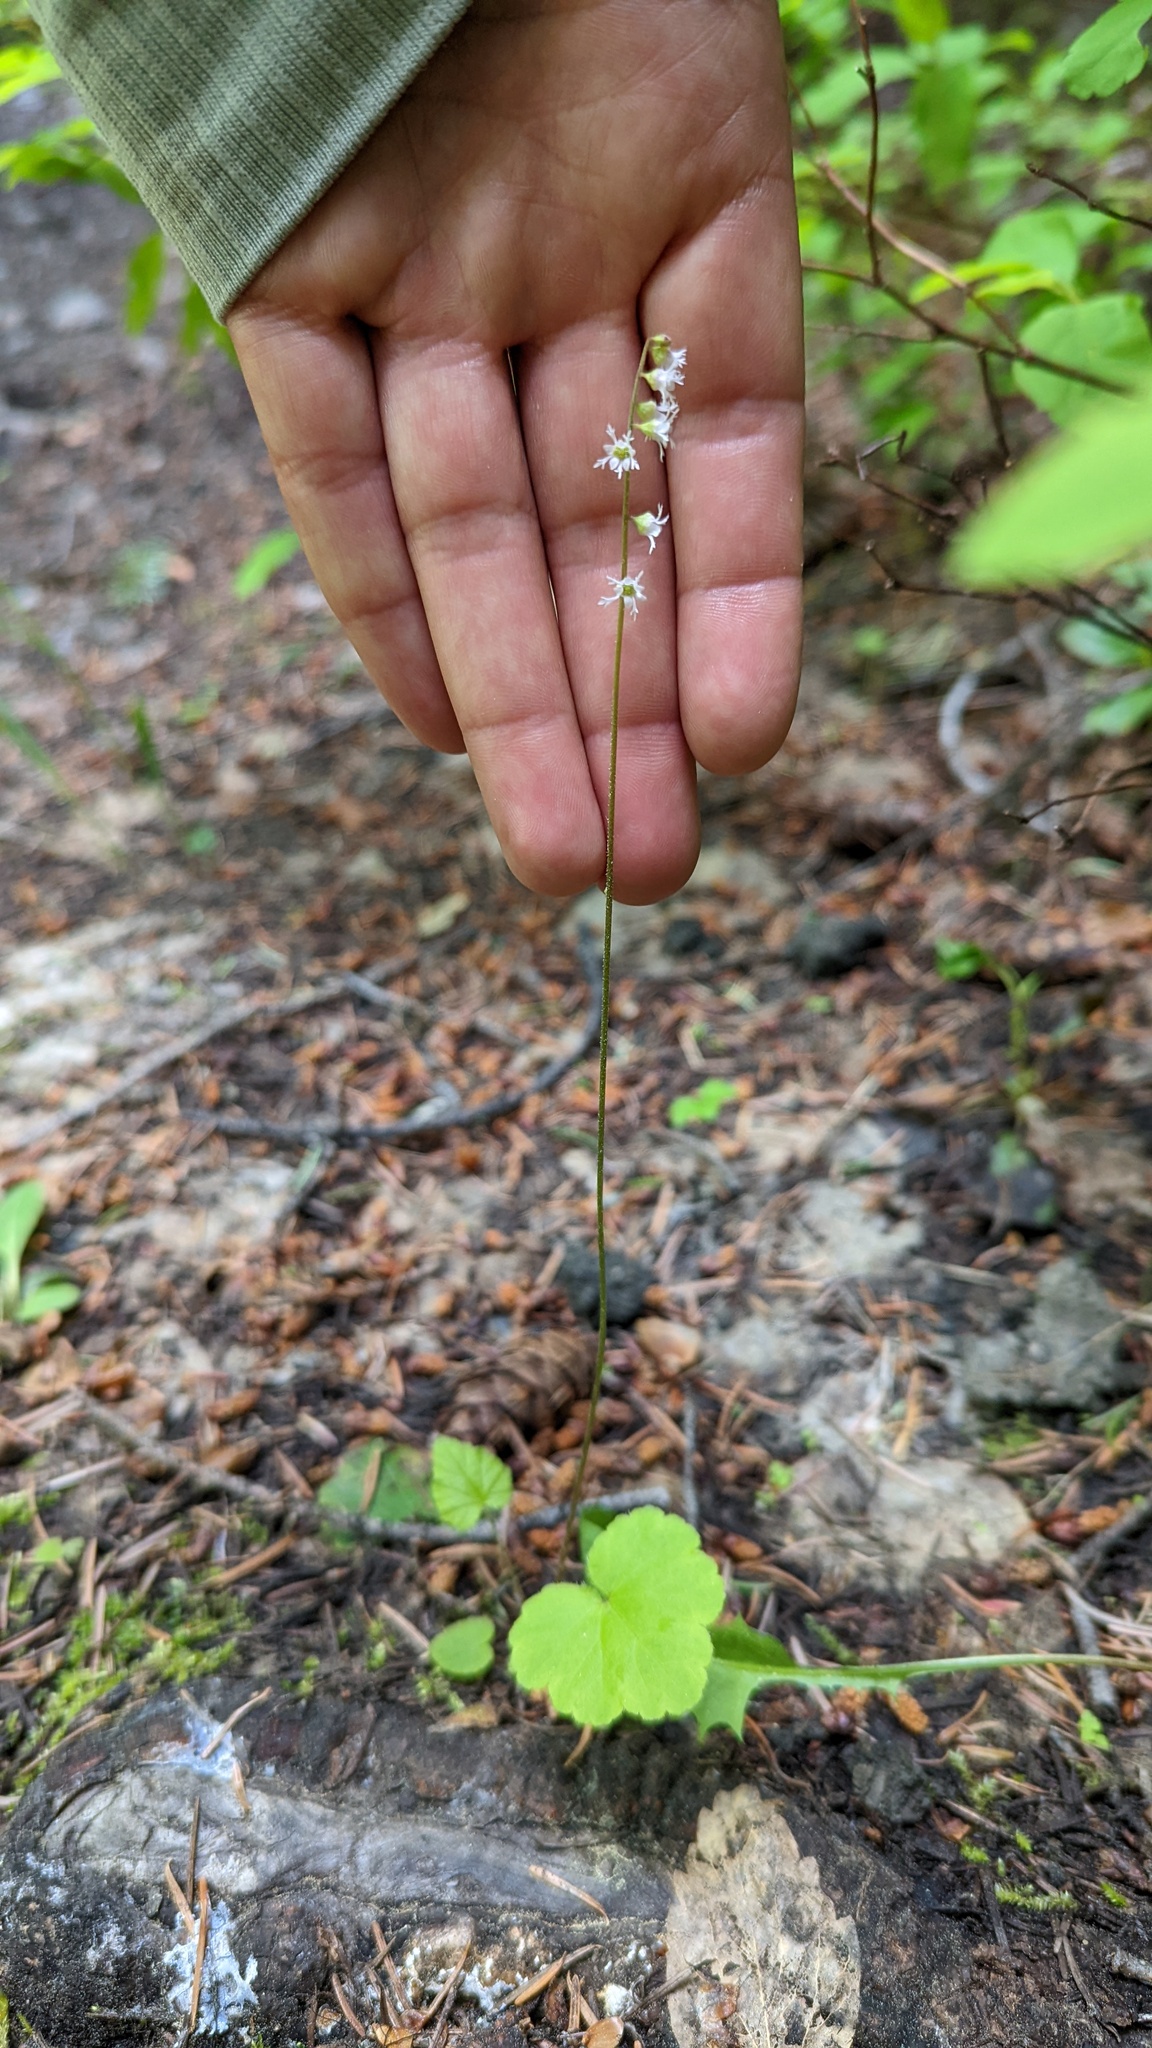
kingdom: Plantae
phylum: Tracheophyta
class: Magnoliopsida
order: Saxifragales
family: Saxifragaceae
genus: Ozomelis
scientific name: Ozomelis trifida
